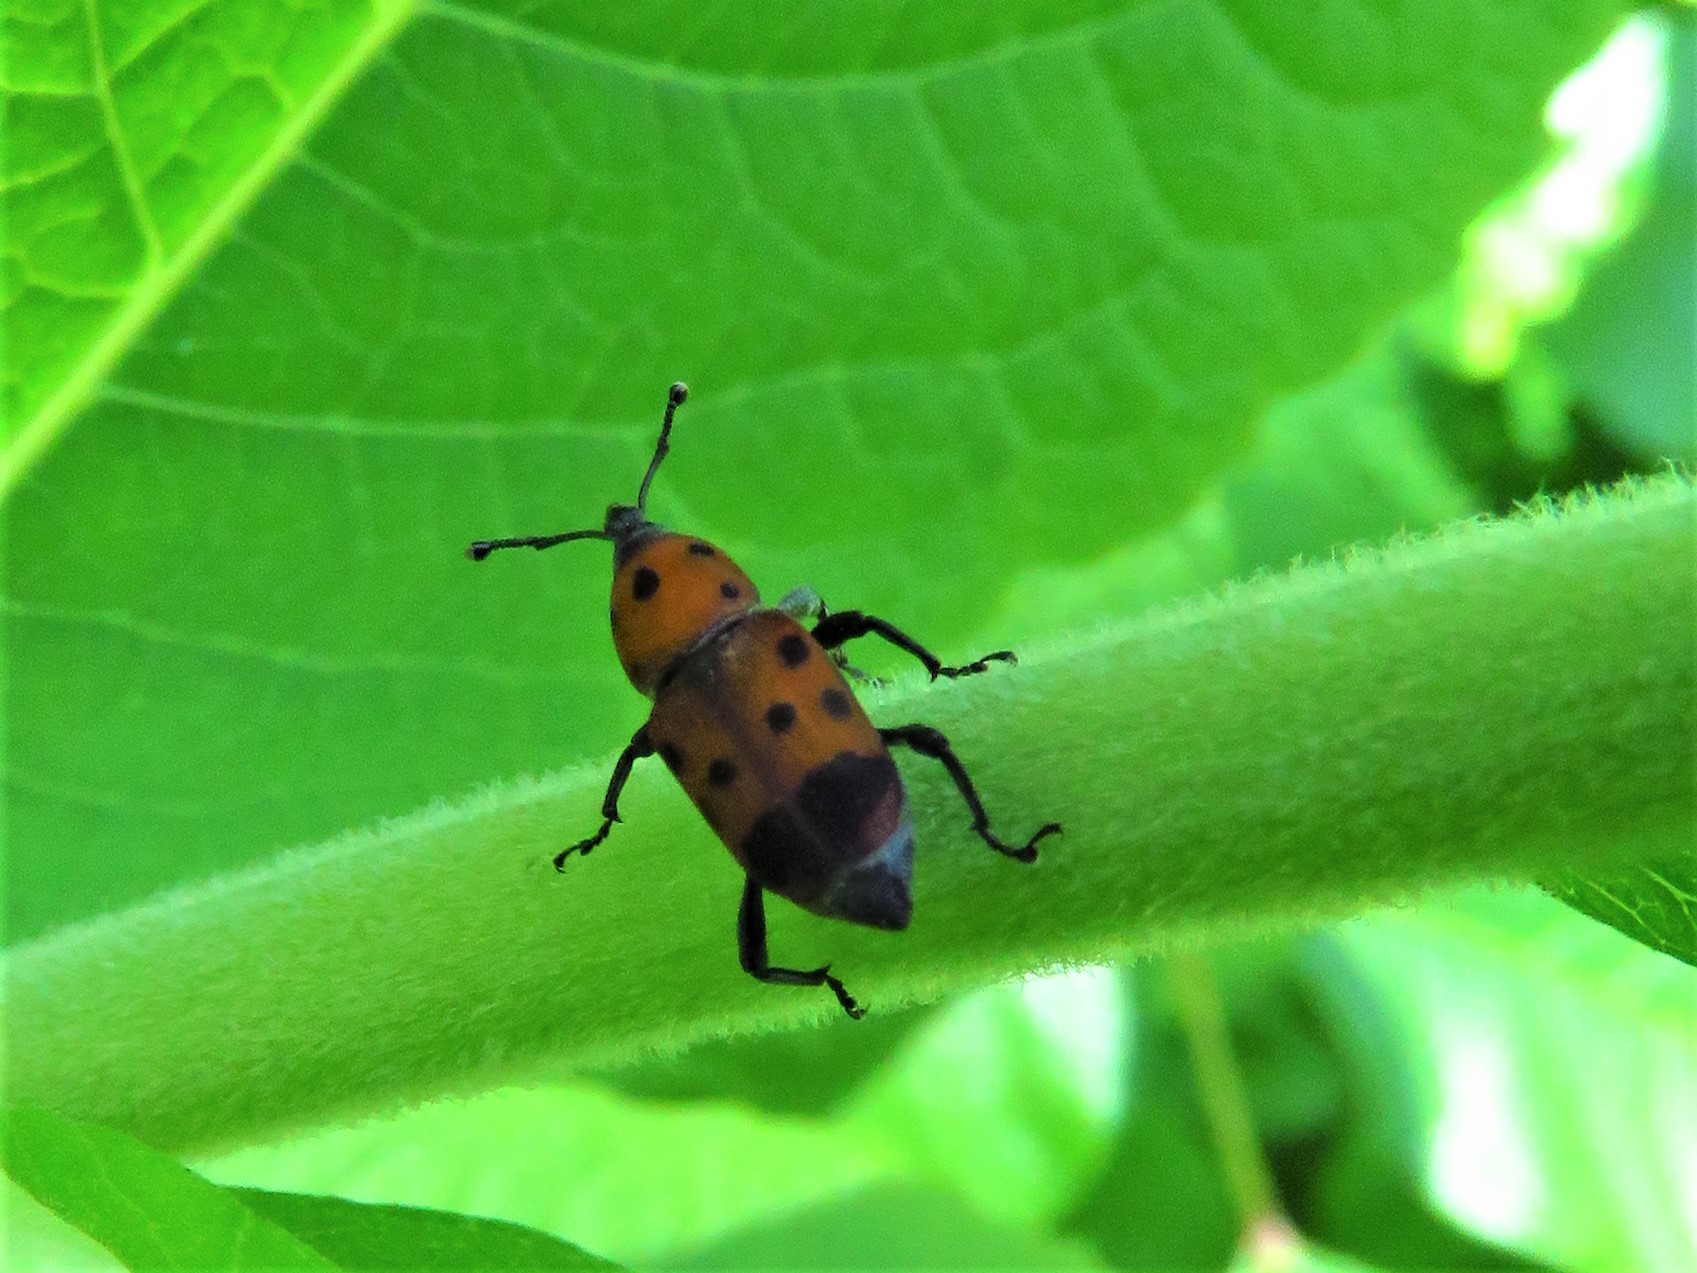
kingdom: Animalia
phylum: Arthropoda
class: Insecta
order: Coleoptera
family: Dryophthoridae
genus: Rhodobaenus
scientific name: Rhodobaenus tredecimpunctatus
